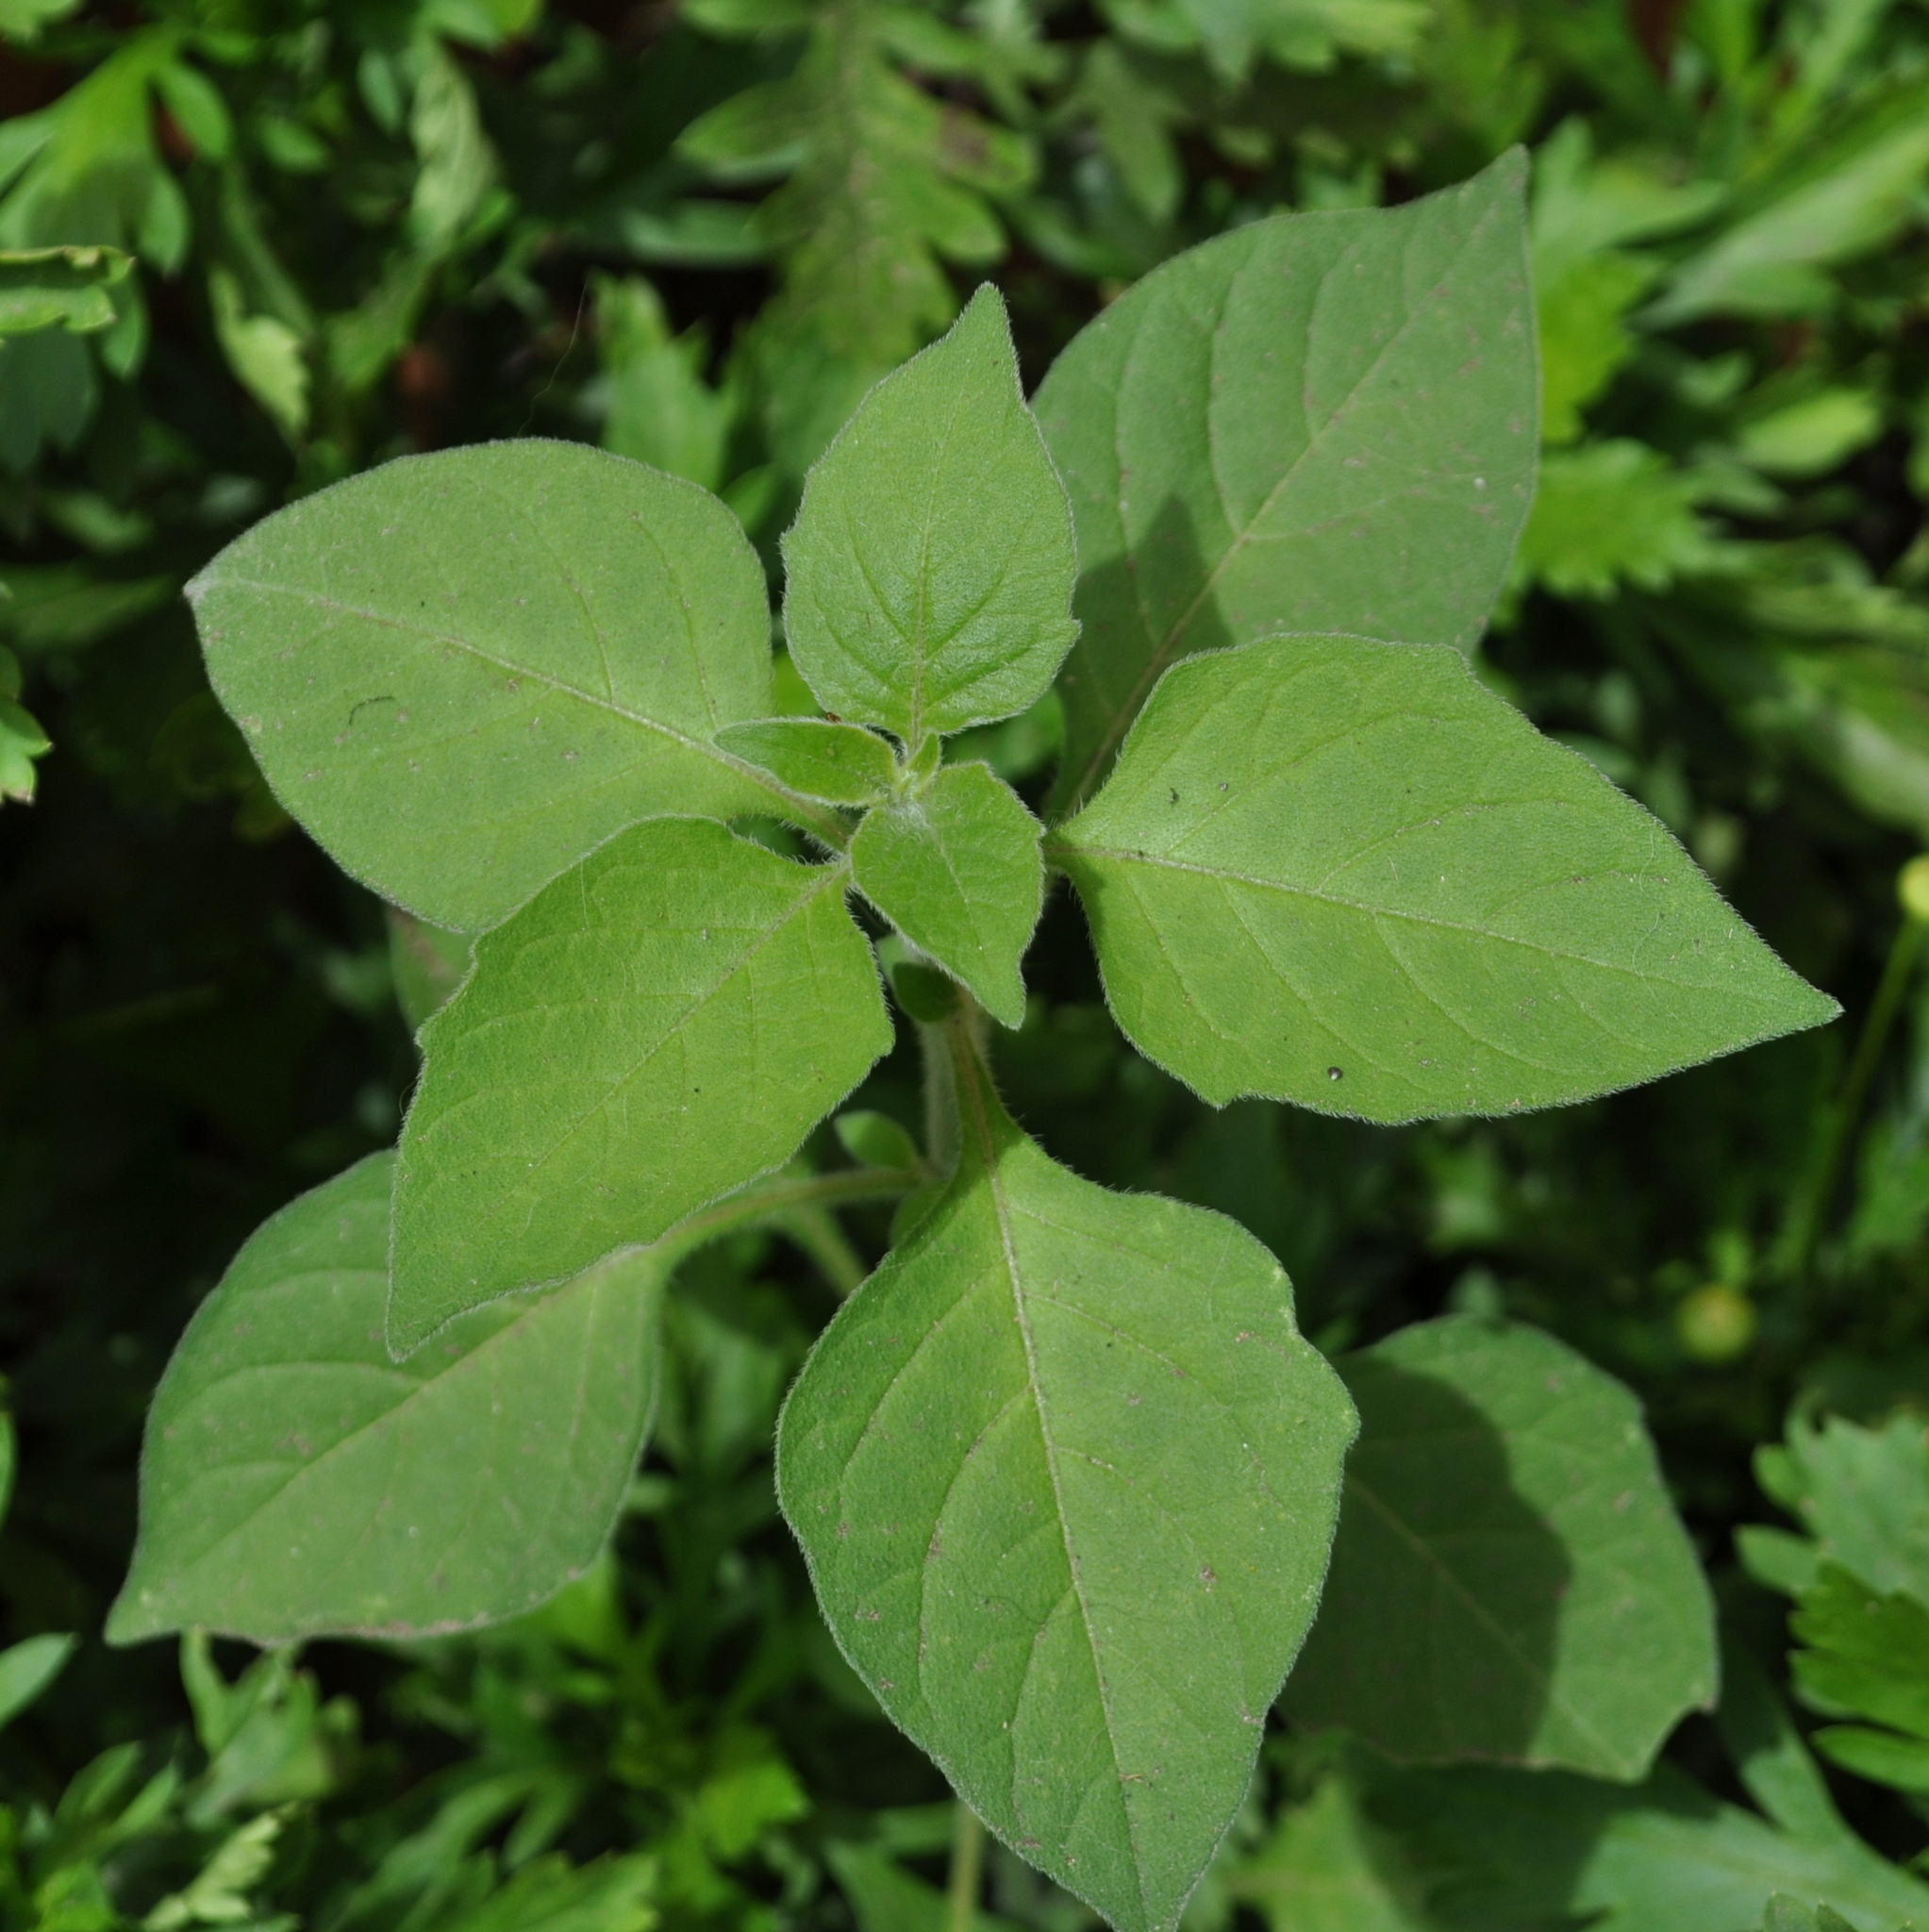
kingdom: Plantae
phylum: Tracheophyta
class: Magnoliopsida
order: Solanales
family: Solanaceae
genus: Solanum
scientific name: Solanum americanum
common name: American black nightshade
